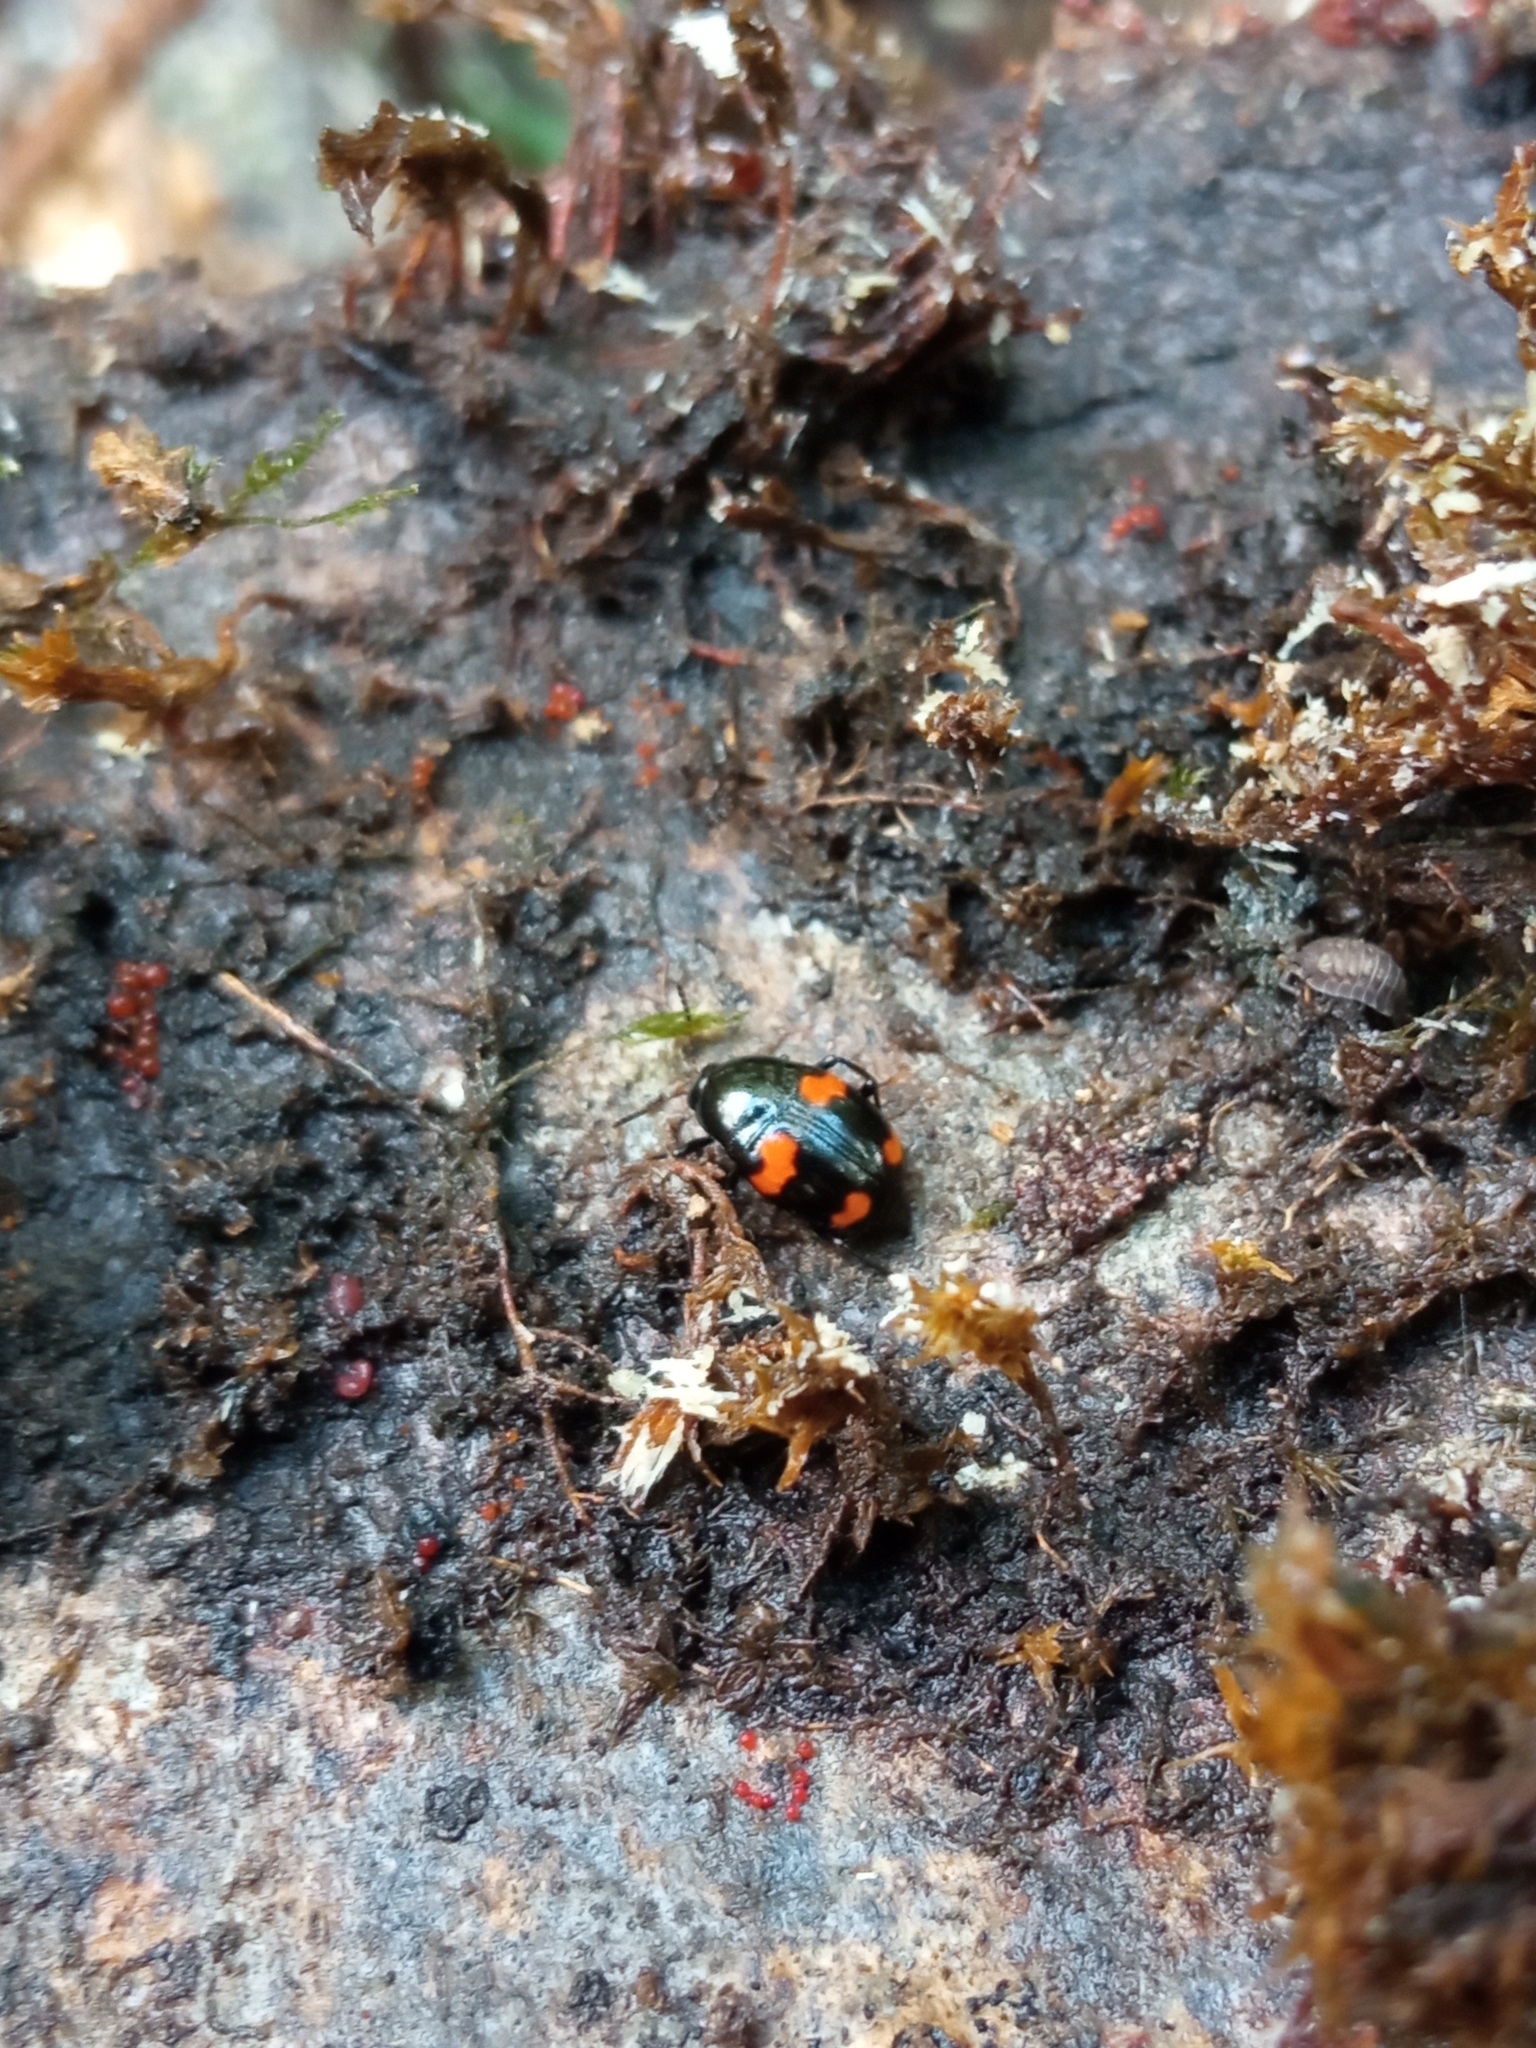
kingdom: Animalia
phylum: Arthropoda
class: Insecta
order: Coleoptera
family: Staphylinidae
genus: Scaphidium
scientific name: Scaphidium quadrimaculatum
